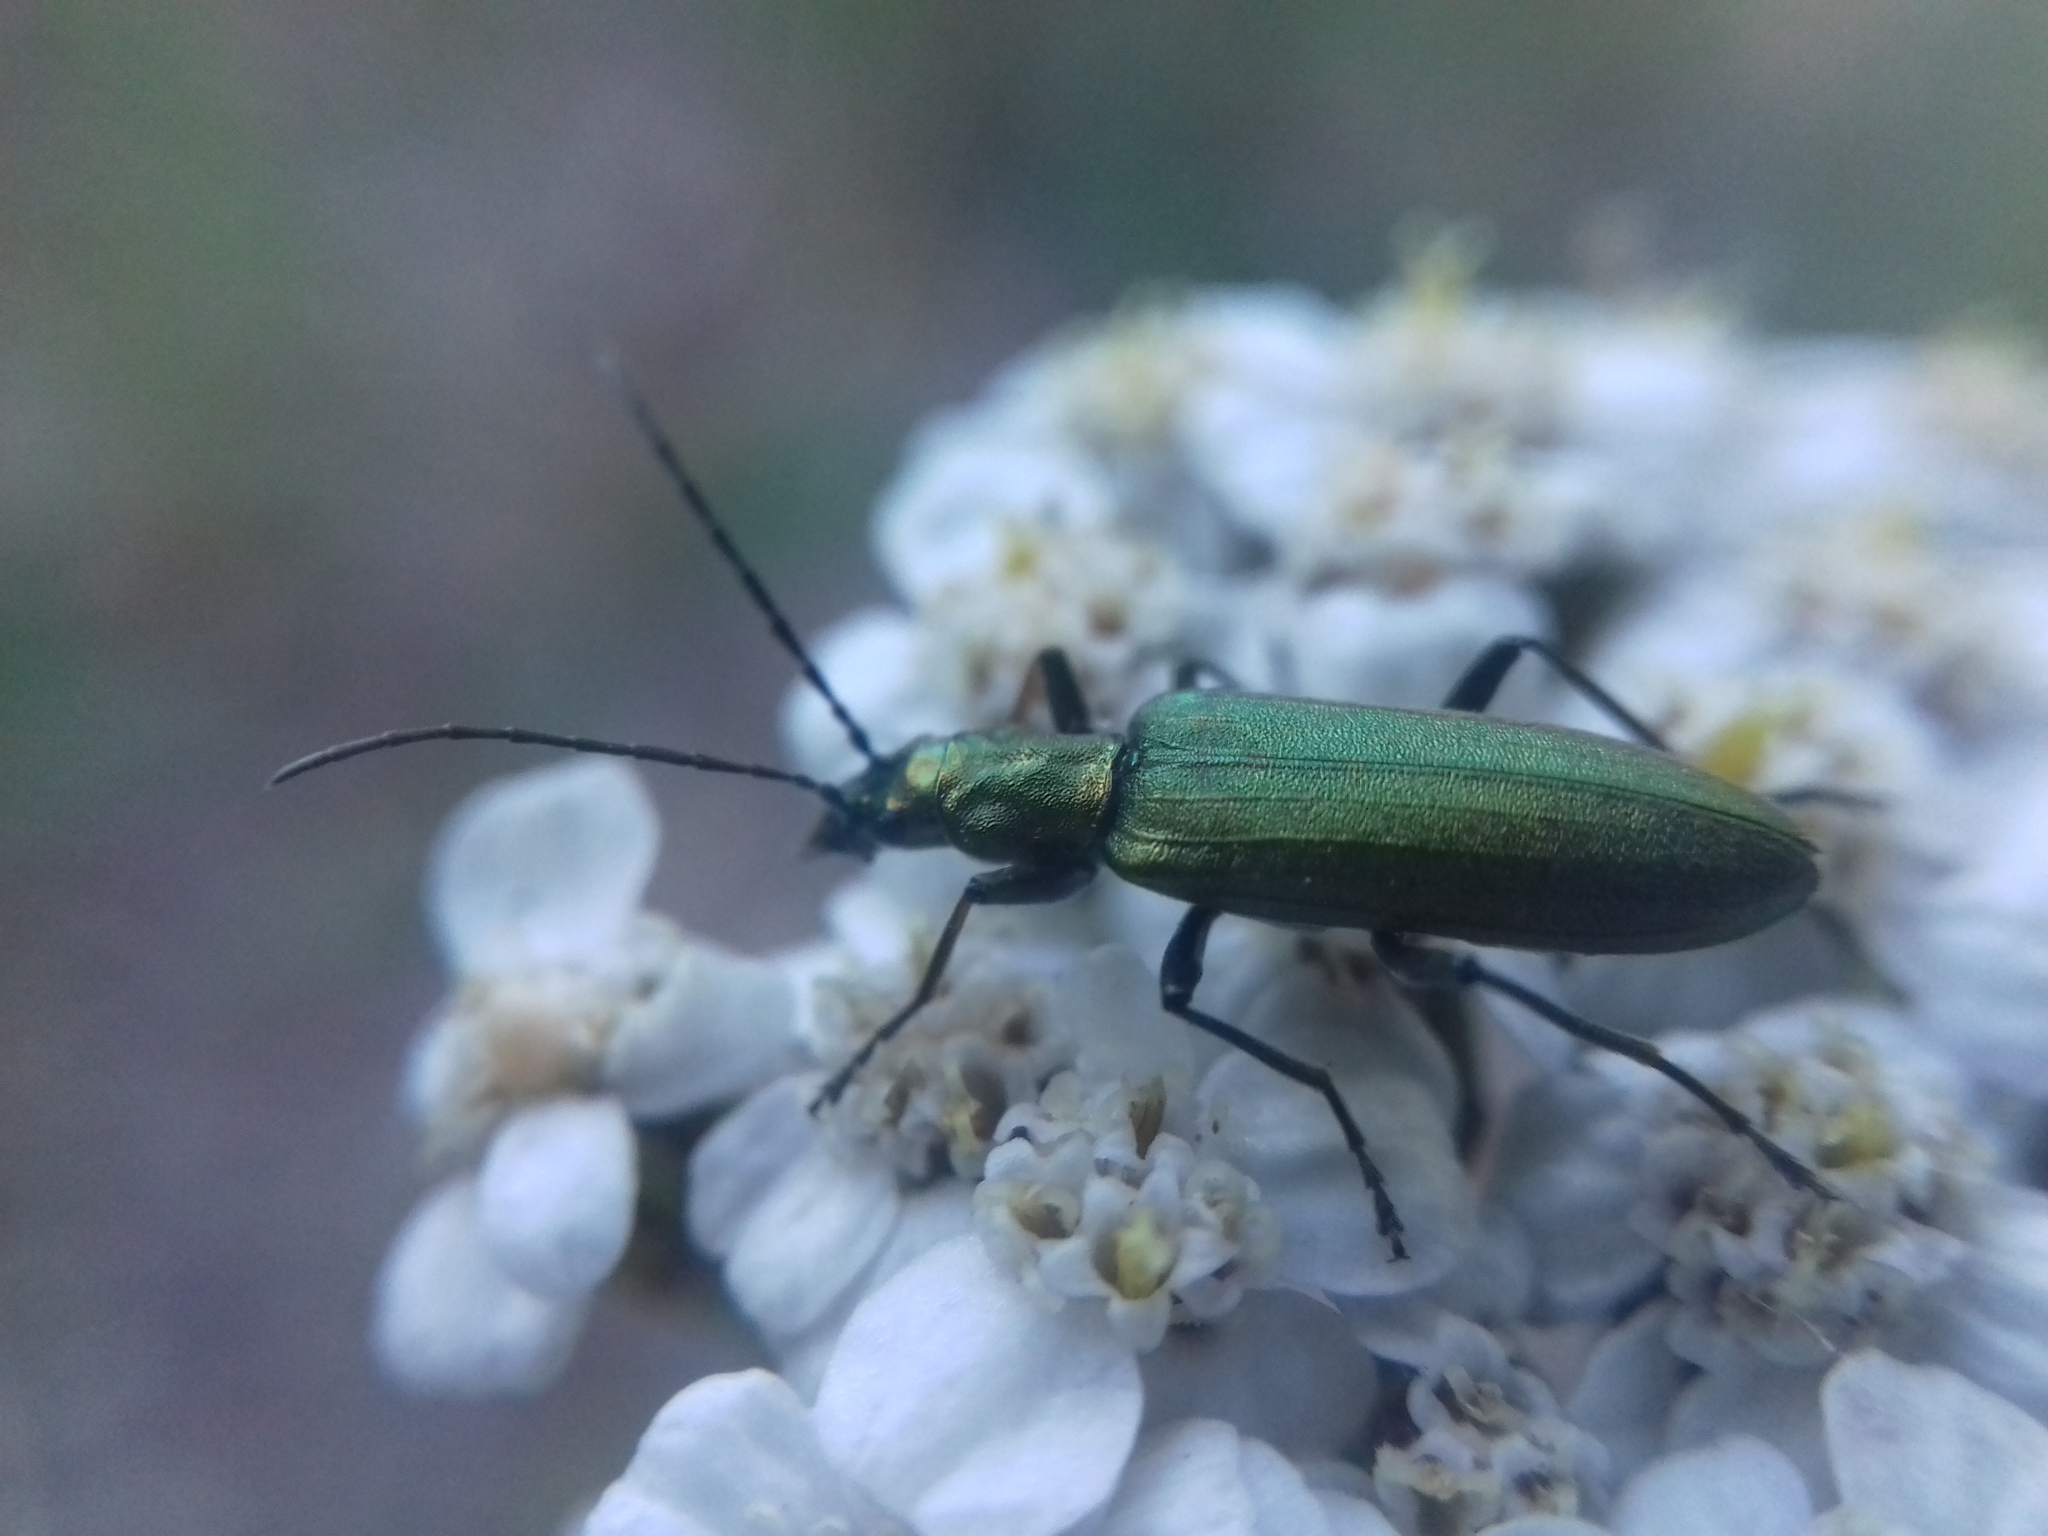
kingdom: Animalia
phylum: Arthropoda
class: Insecta
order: Coleoptera
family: Oedemeridae
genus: Chrysanthia
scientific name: Chrysanthia viridissima
